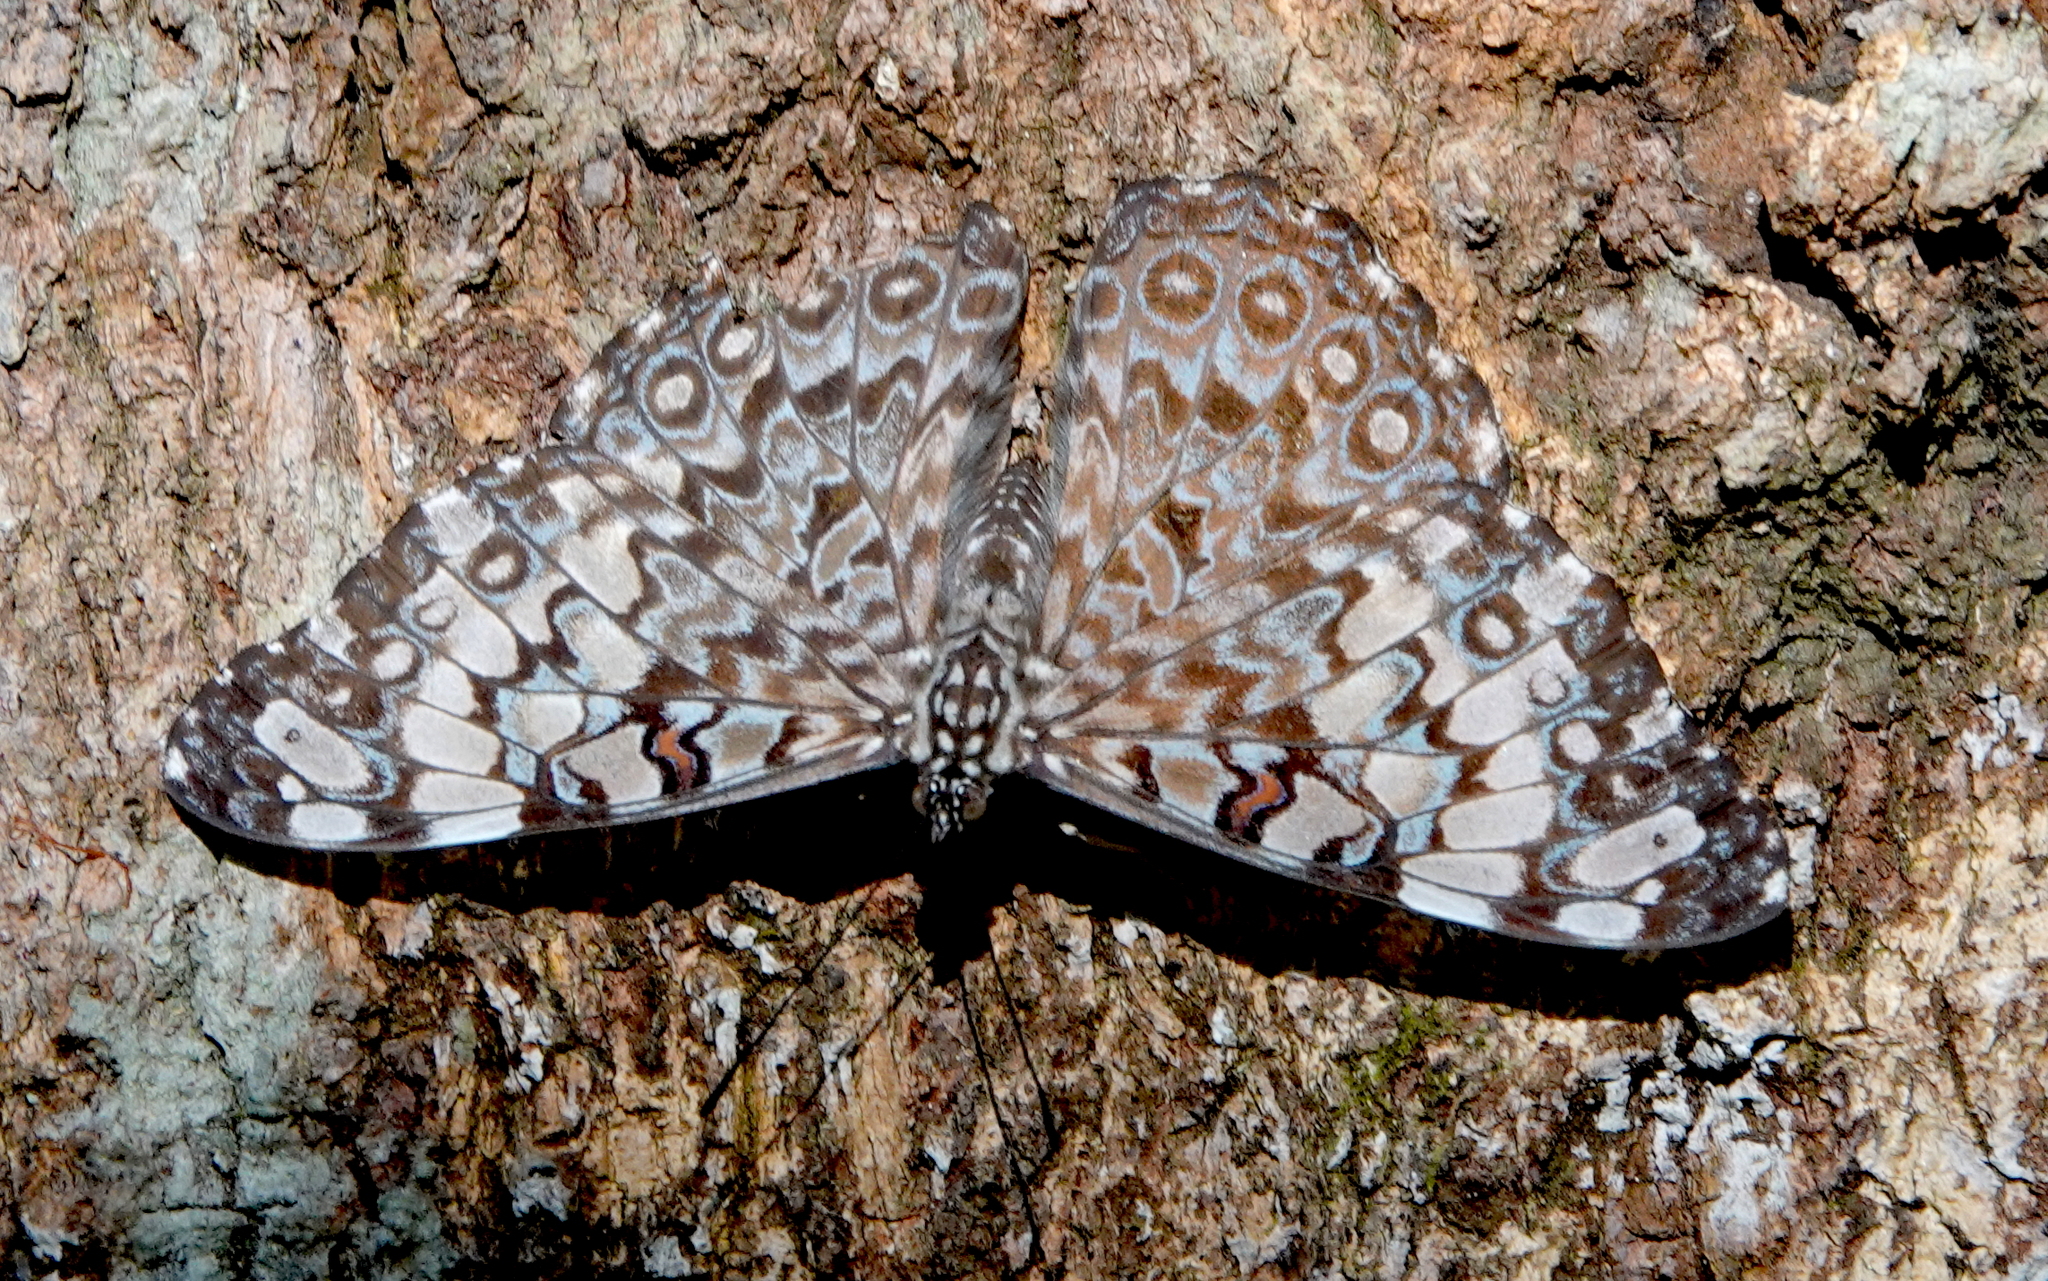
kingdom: Animalia
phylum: Arthropoda
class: Insecta
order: Lepidoptera
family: Nymphalidae
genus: Hamadryas
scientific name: Hamadryas feronia
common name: Variable cracker
